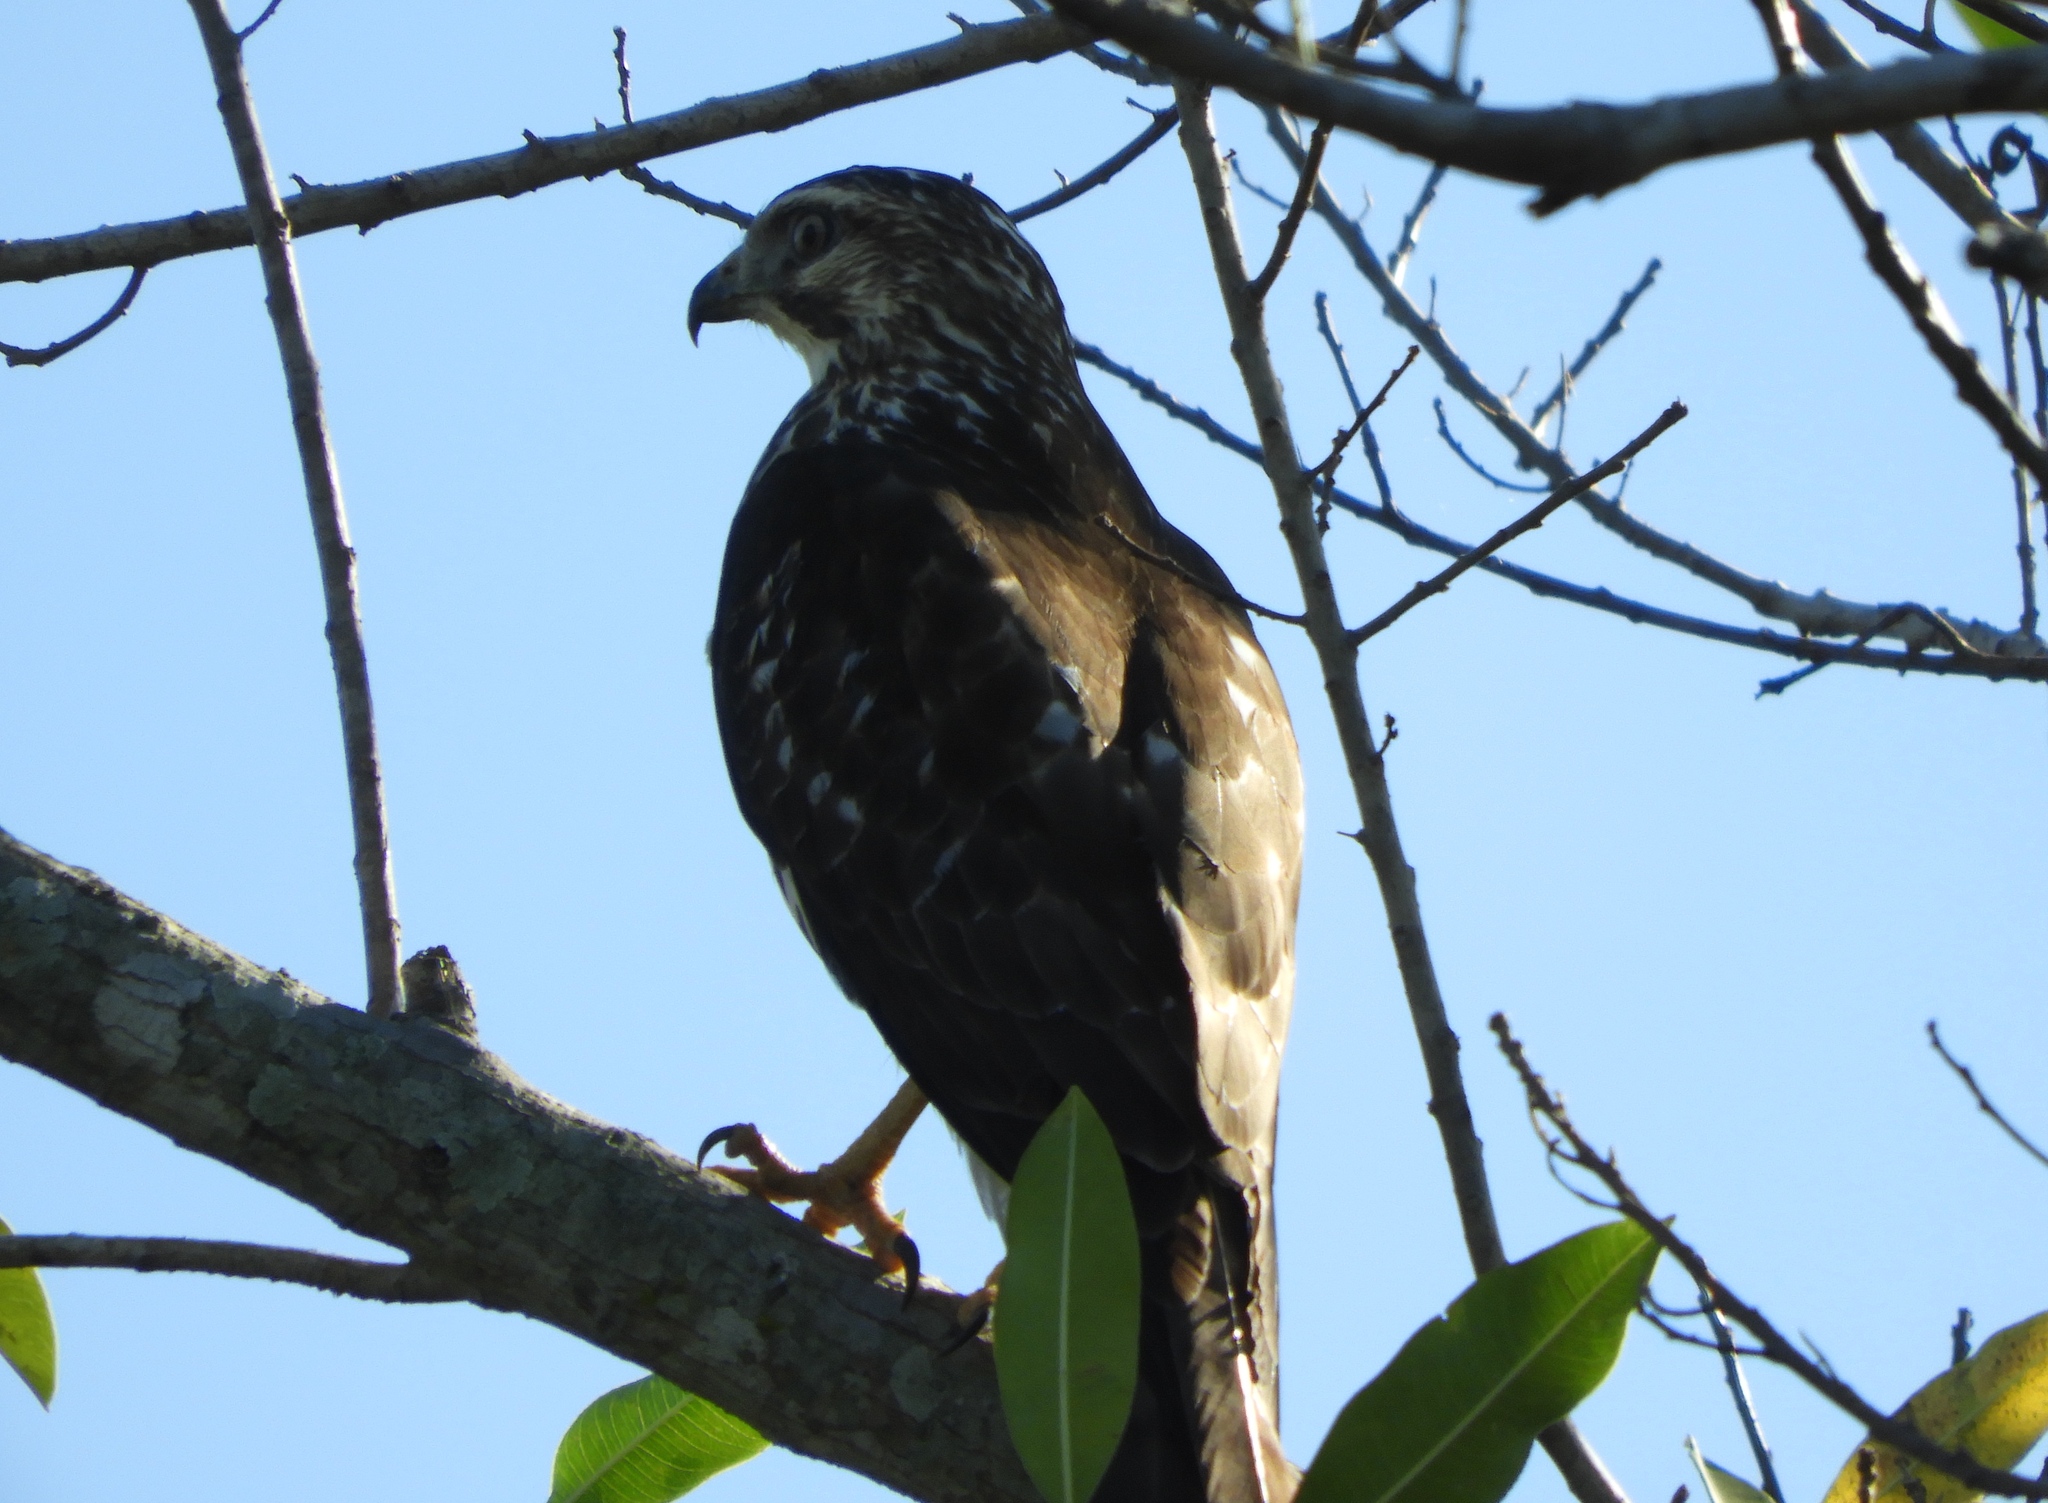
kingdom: Animalia
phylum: Chordata
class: Aves
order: Accipitriformes
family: Accipitridae
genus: Buteo
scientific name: Buteo platypterus
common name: Broad-winged hawk
